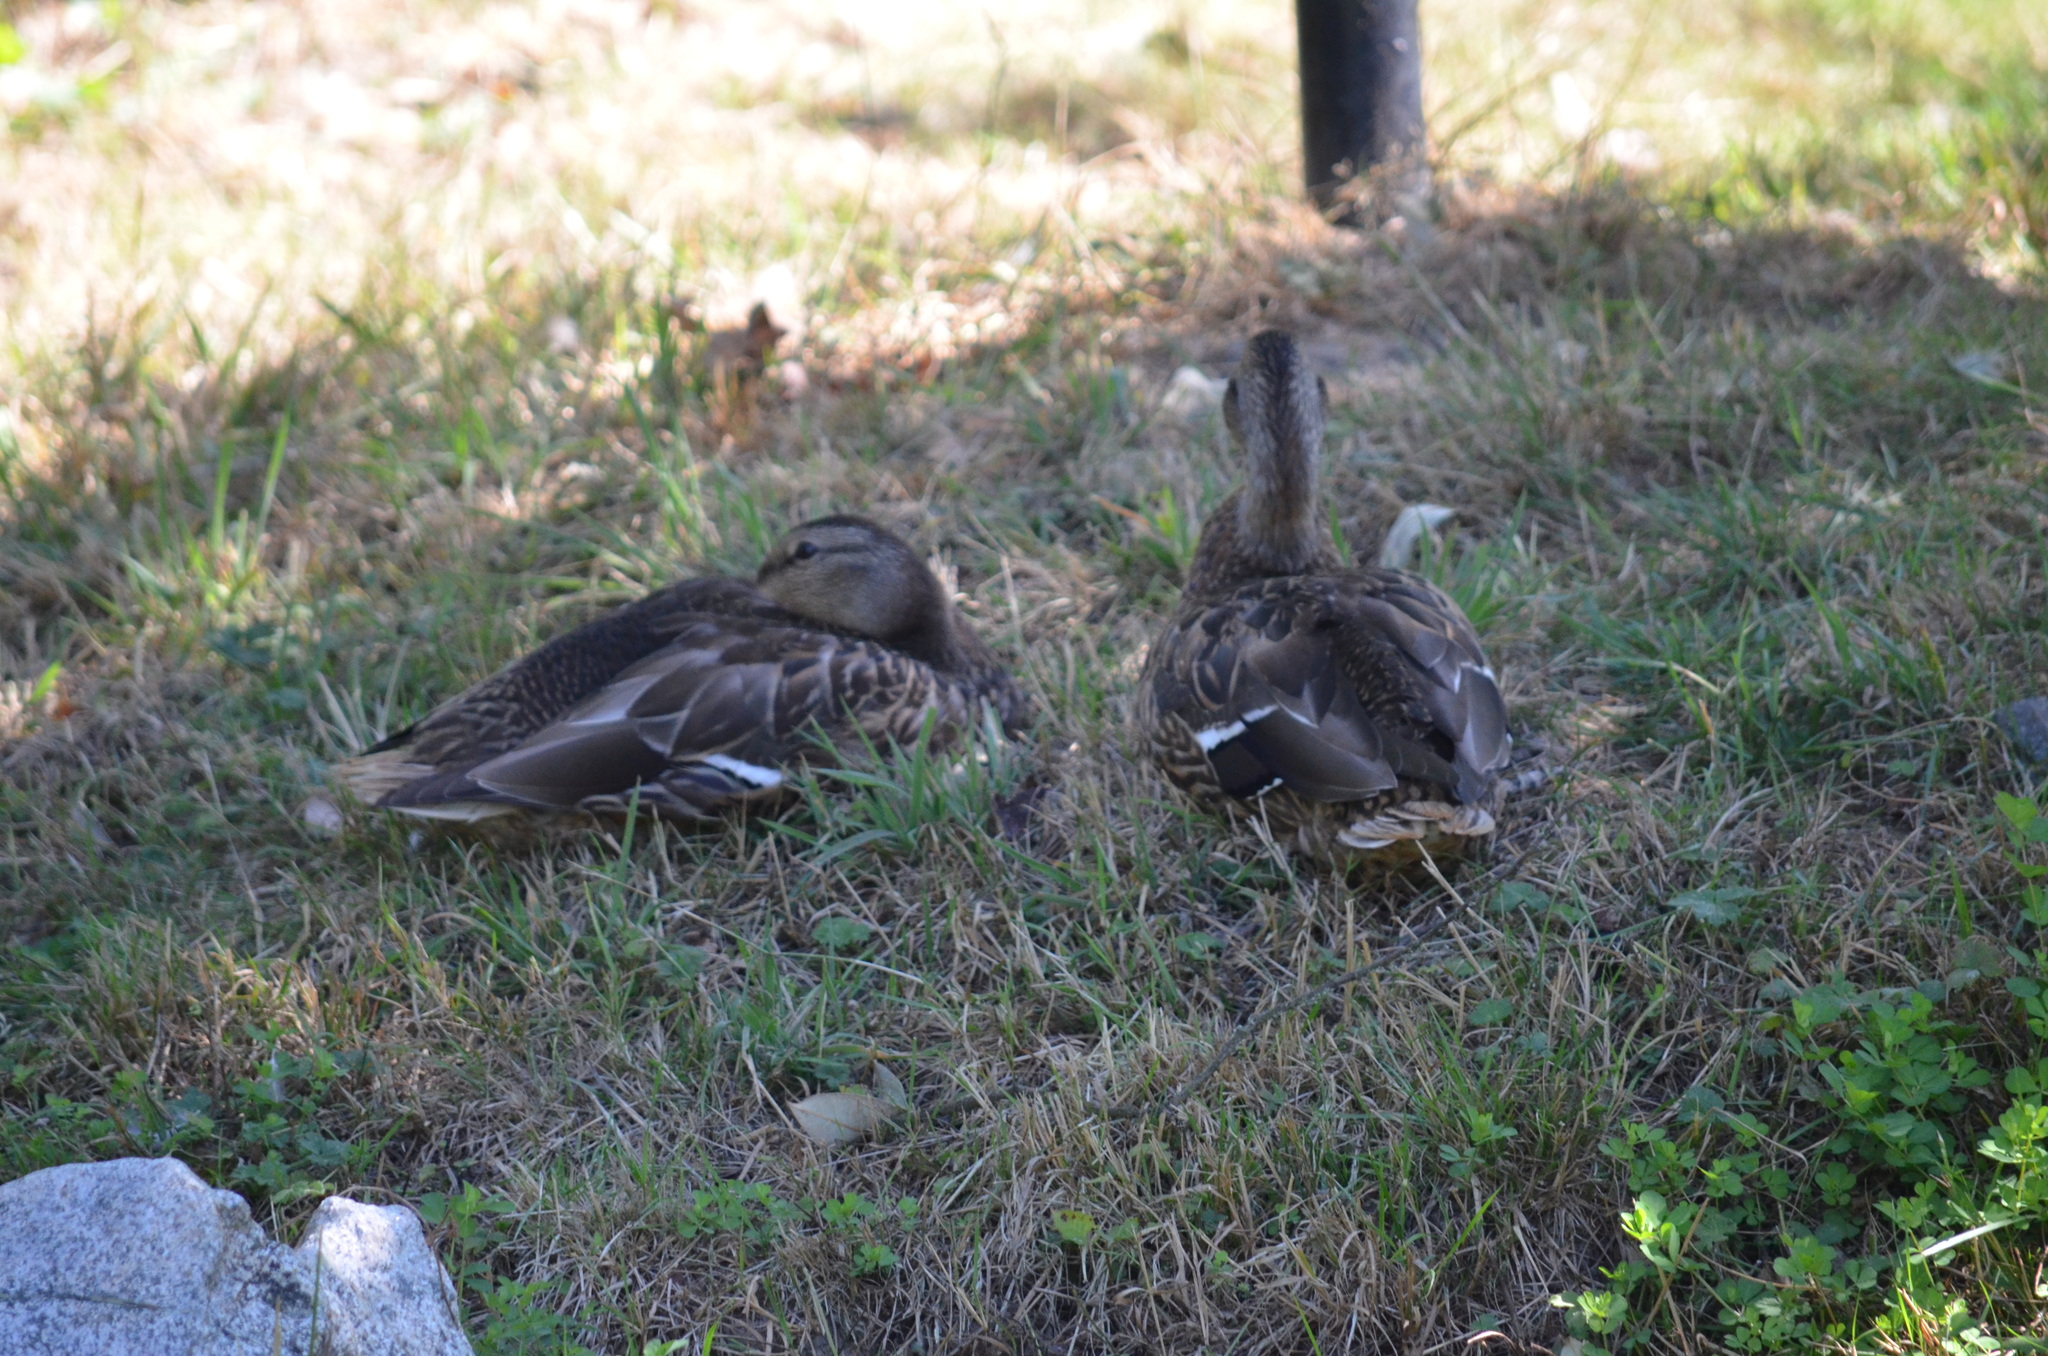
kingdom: Animalia
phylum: Chordata
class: Aves
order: Anseriformes
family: Anatidae
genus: Anas
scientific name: Anas platyrhynchos
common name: Mallard
